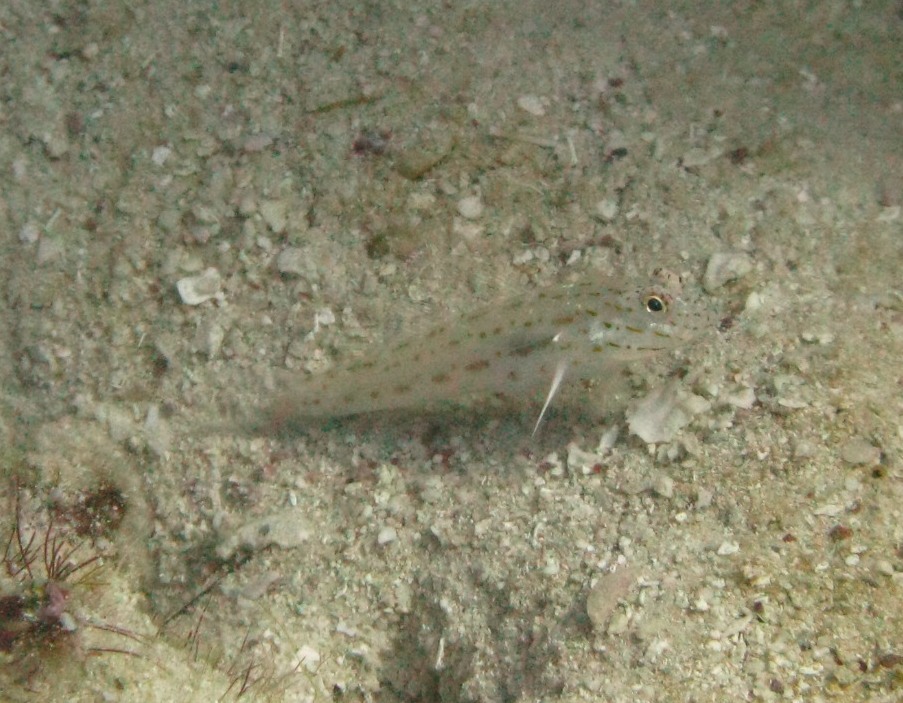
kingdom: Animalia
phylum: Chordata
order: Perciformes
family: Gobiidae
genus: Ctenogobiops
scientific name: Ctenogobiops crocineus
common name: Silverspot shrimpgoby
